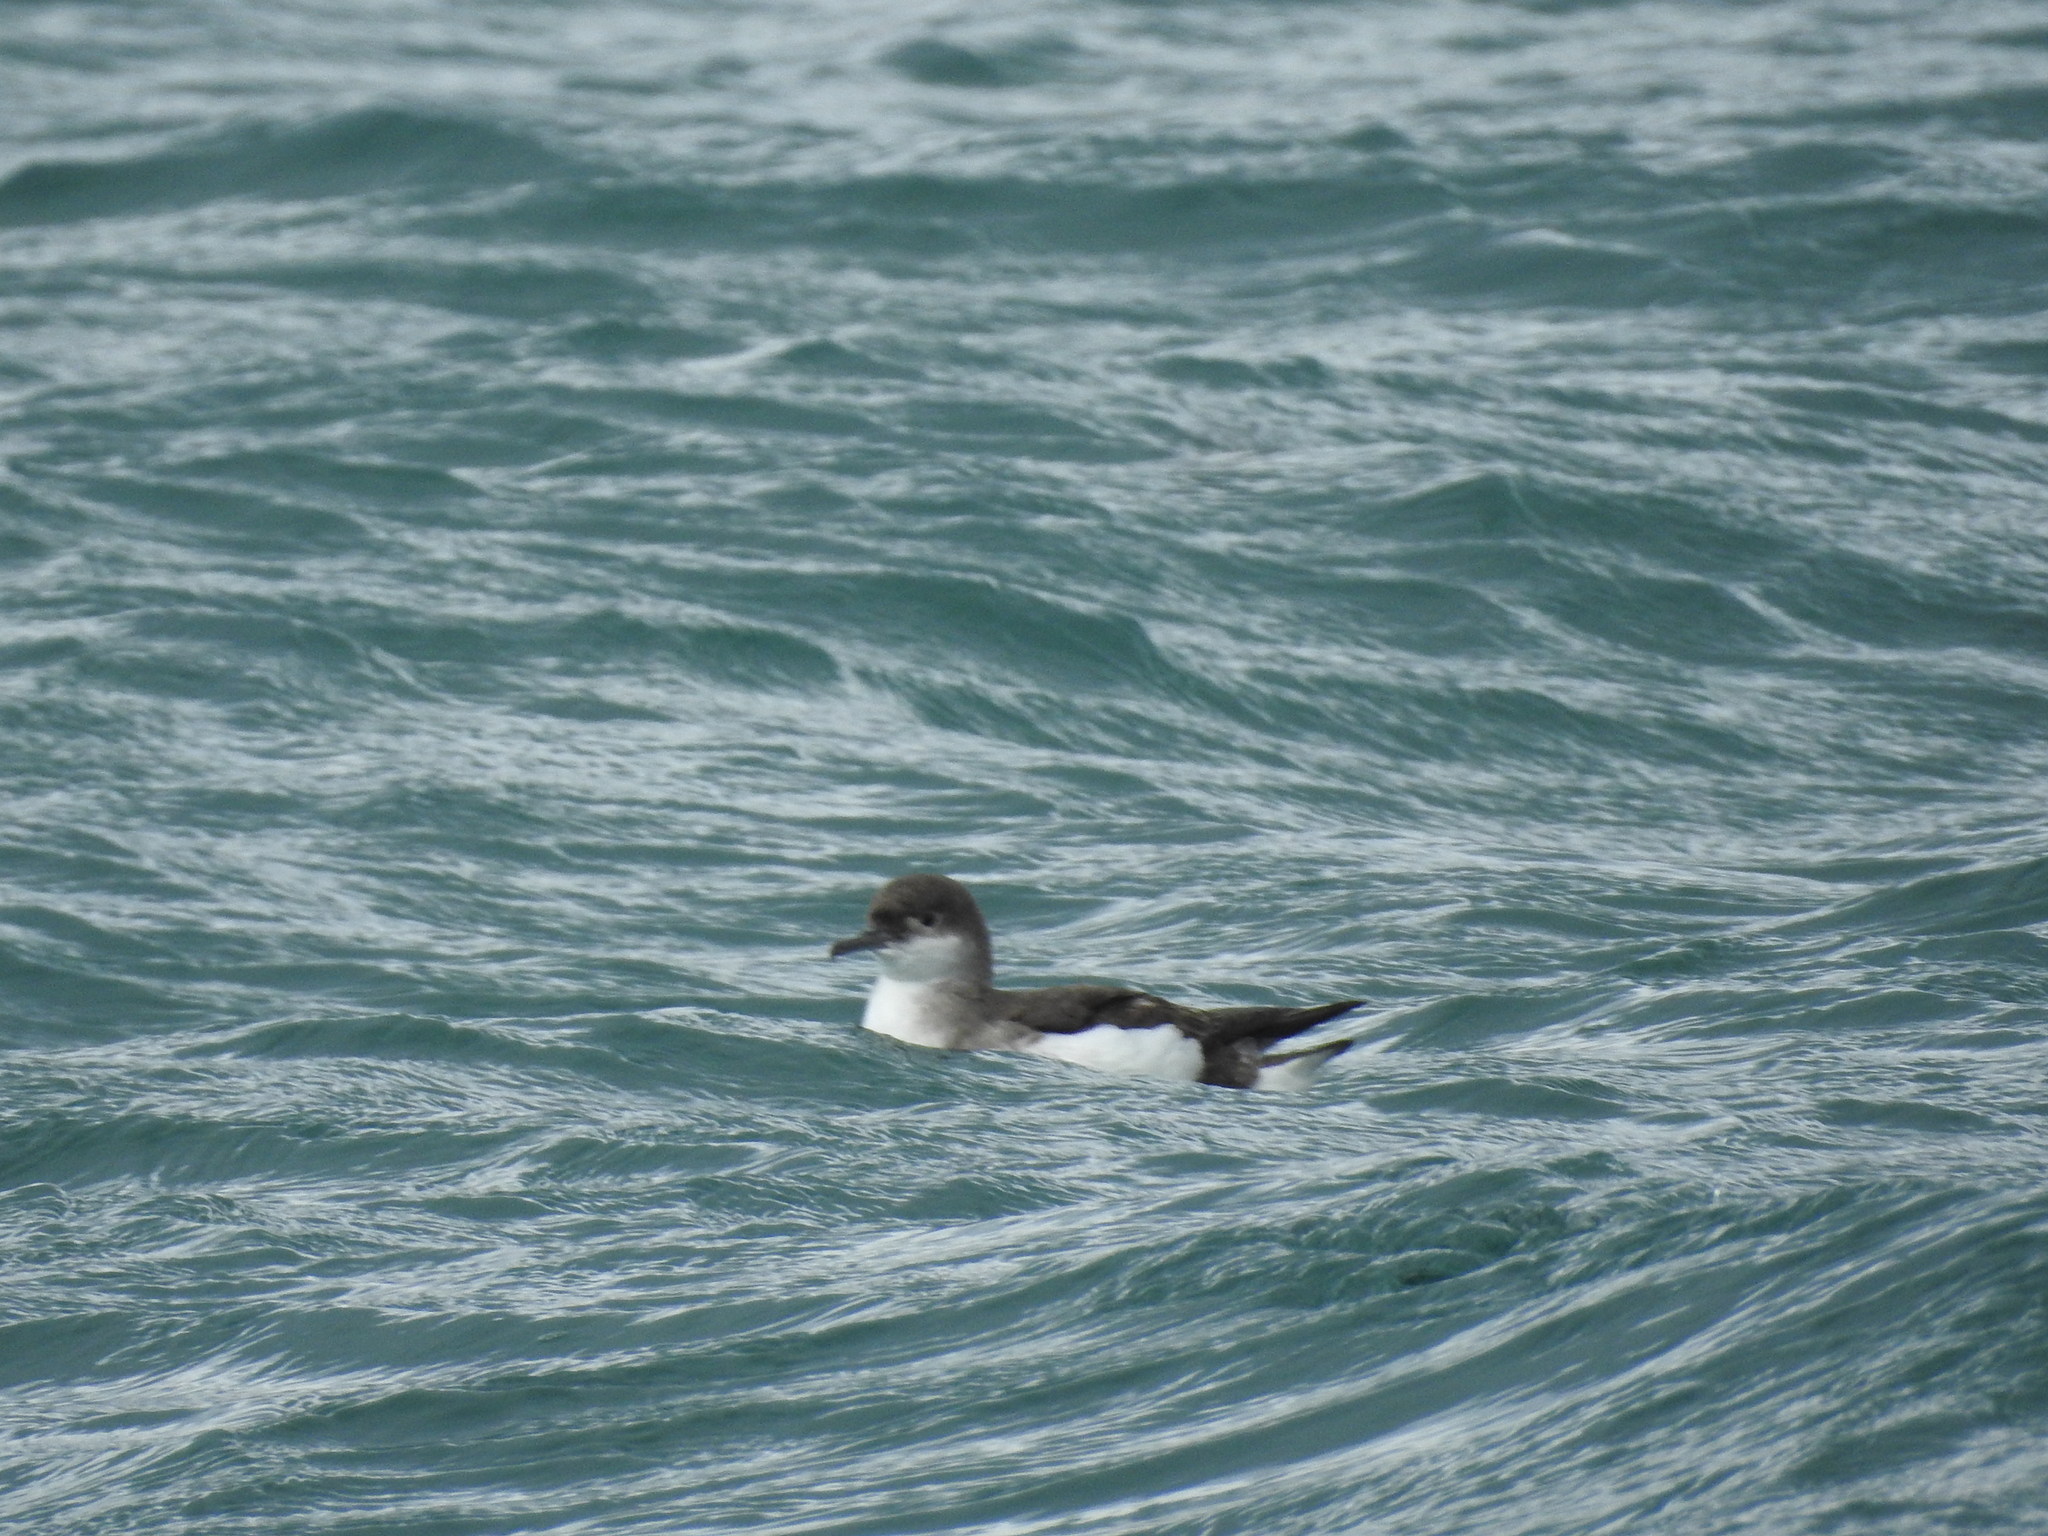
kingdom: Animalia
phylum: Chordata
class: Aves
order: Procellariiformes
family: Procellariidae
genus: Puffinus
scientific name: Puffinus gavia
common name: Fluttering shearwater
